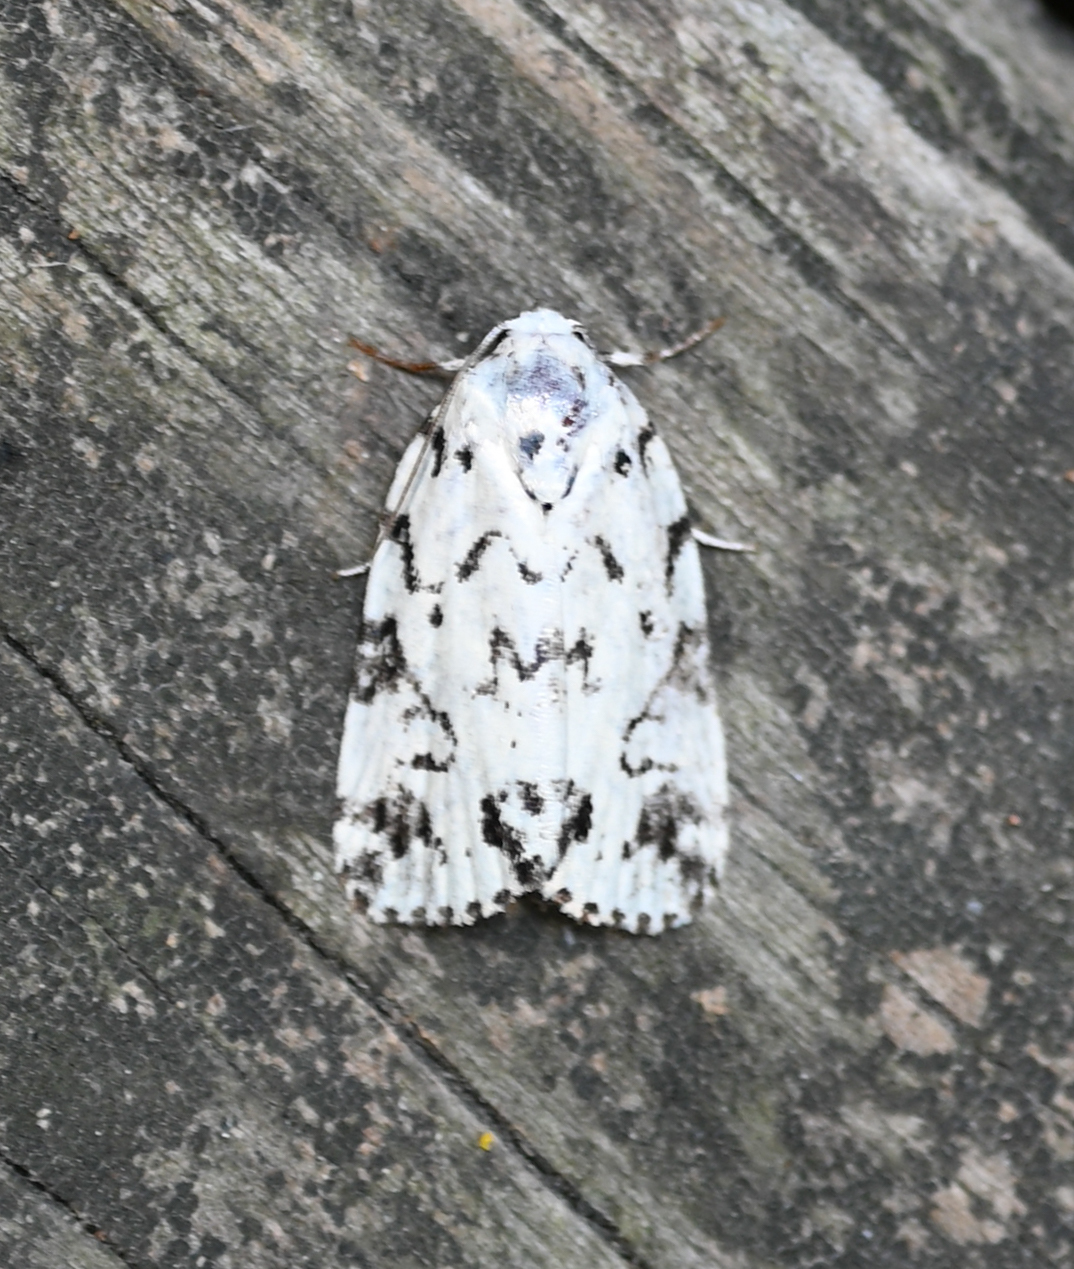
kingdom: Animalia
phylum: Arthropoda
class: Insecta
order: Lepidoptera
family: Noctuidae
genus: Polygrammate
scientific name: Polygrammate hebraeicum
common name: Hebrew moth
